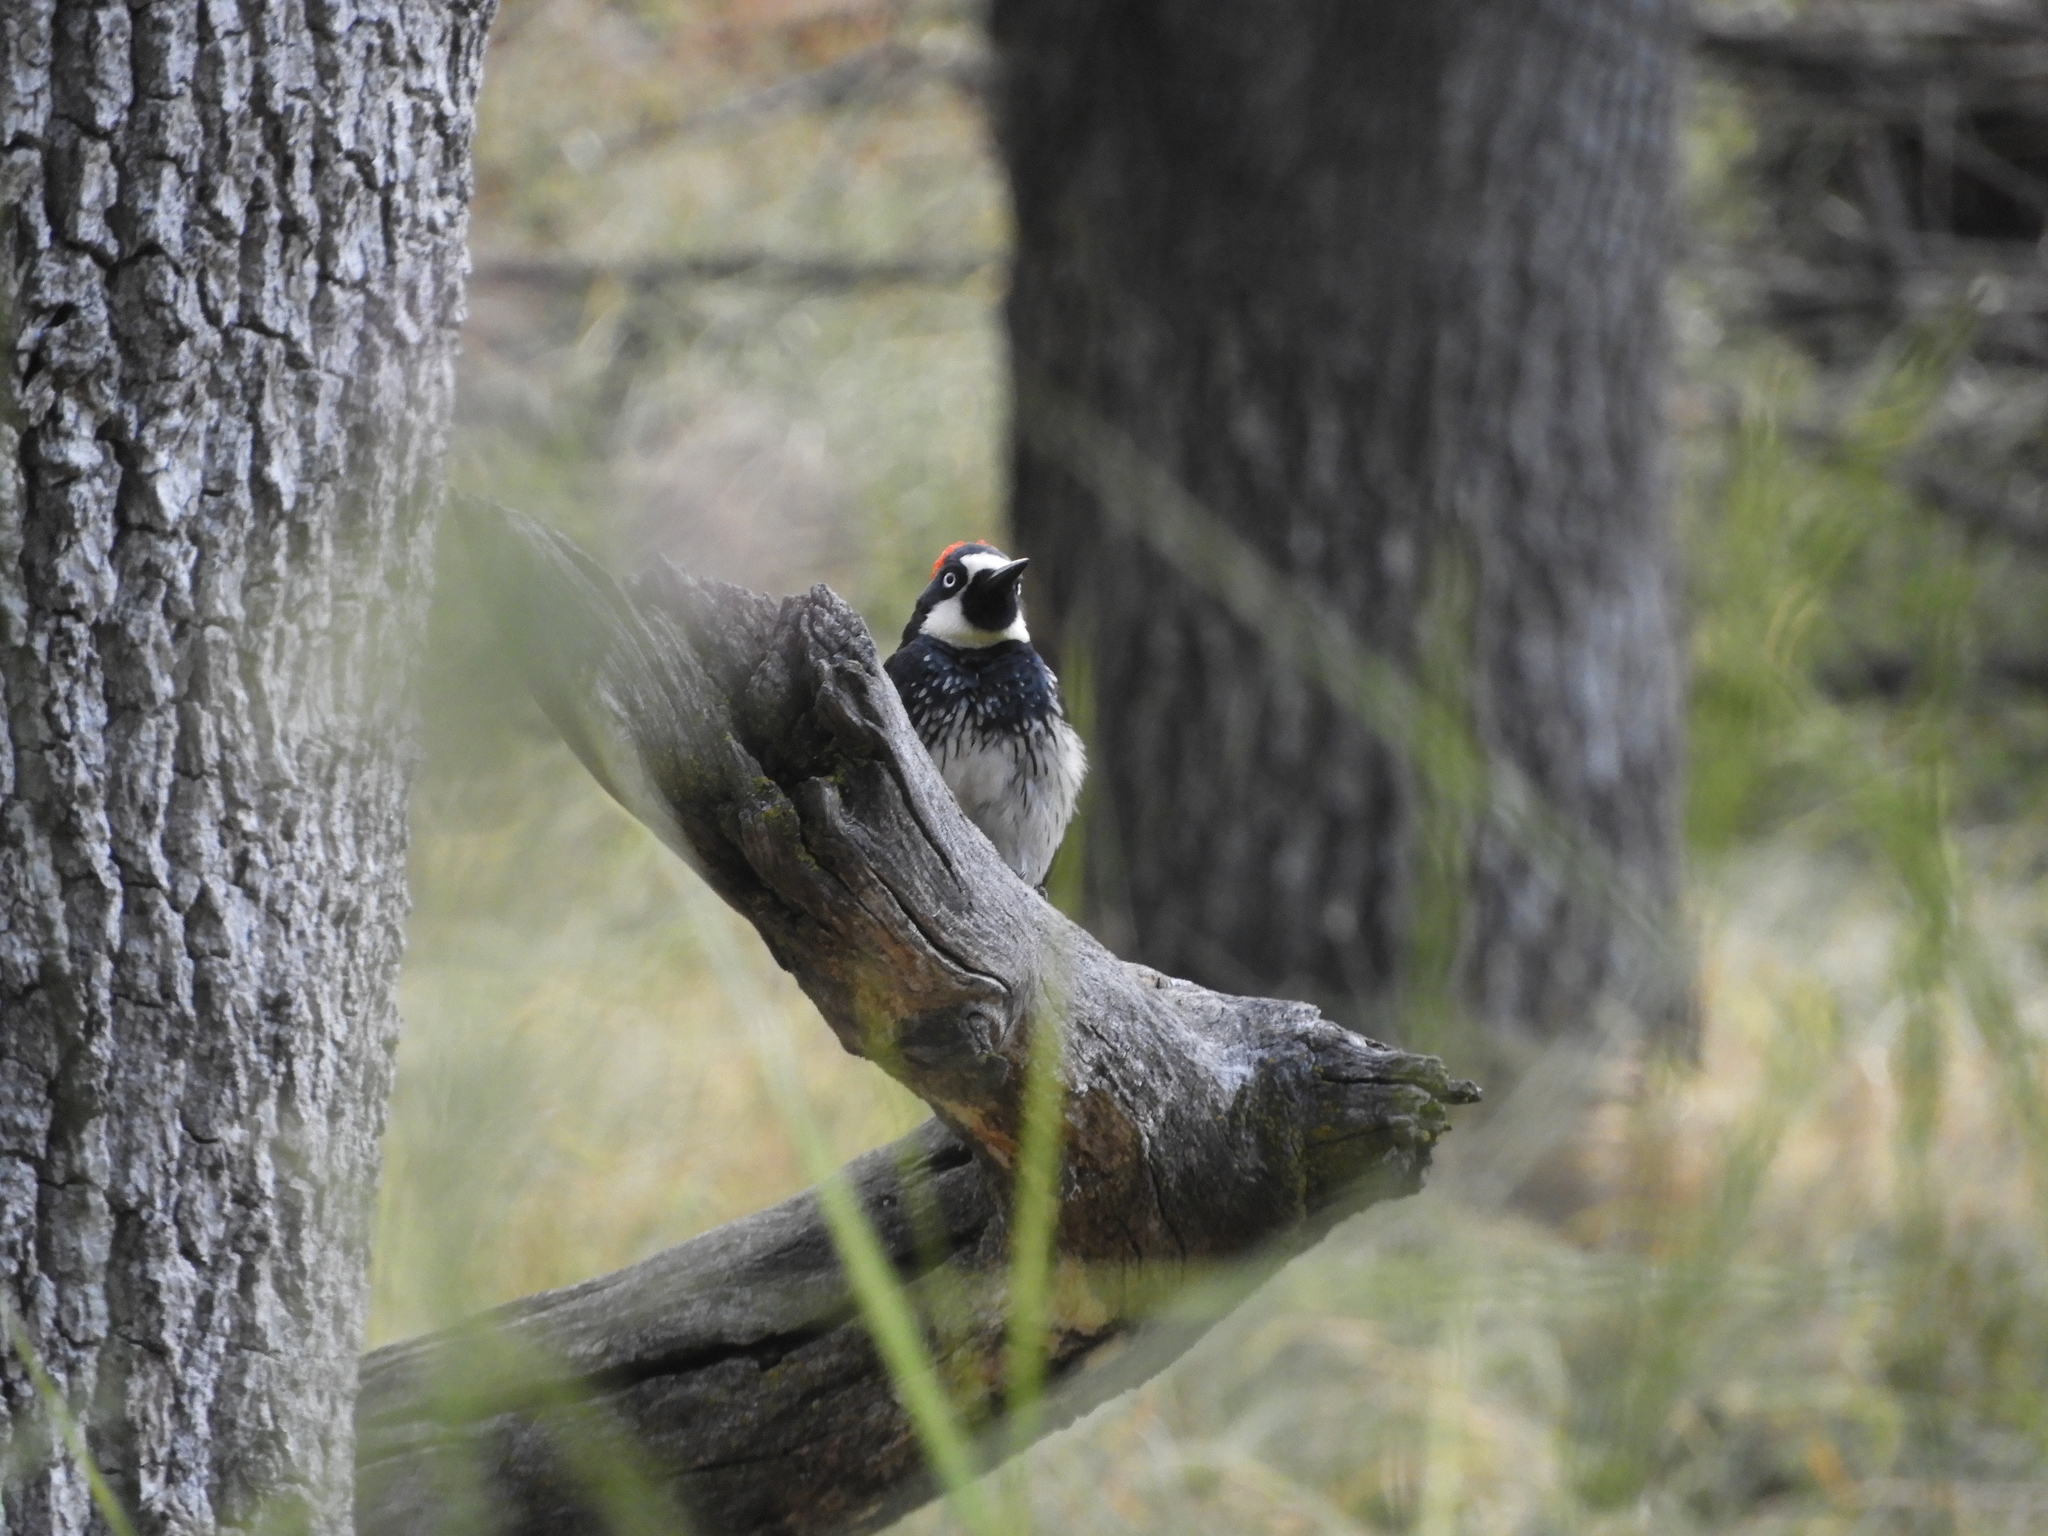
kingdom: Animalia
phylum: Chordata
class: Aves
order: Piciformes
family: Picidae
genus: Melanerpes
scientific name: Melanerpes formicivorus
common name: Acorn woodpecker
